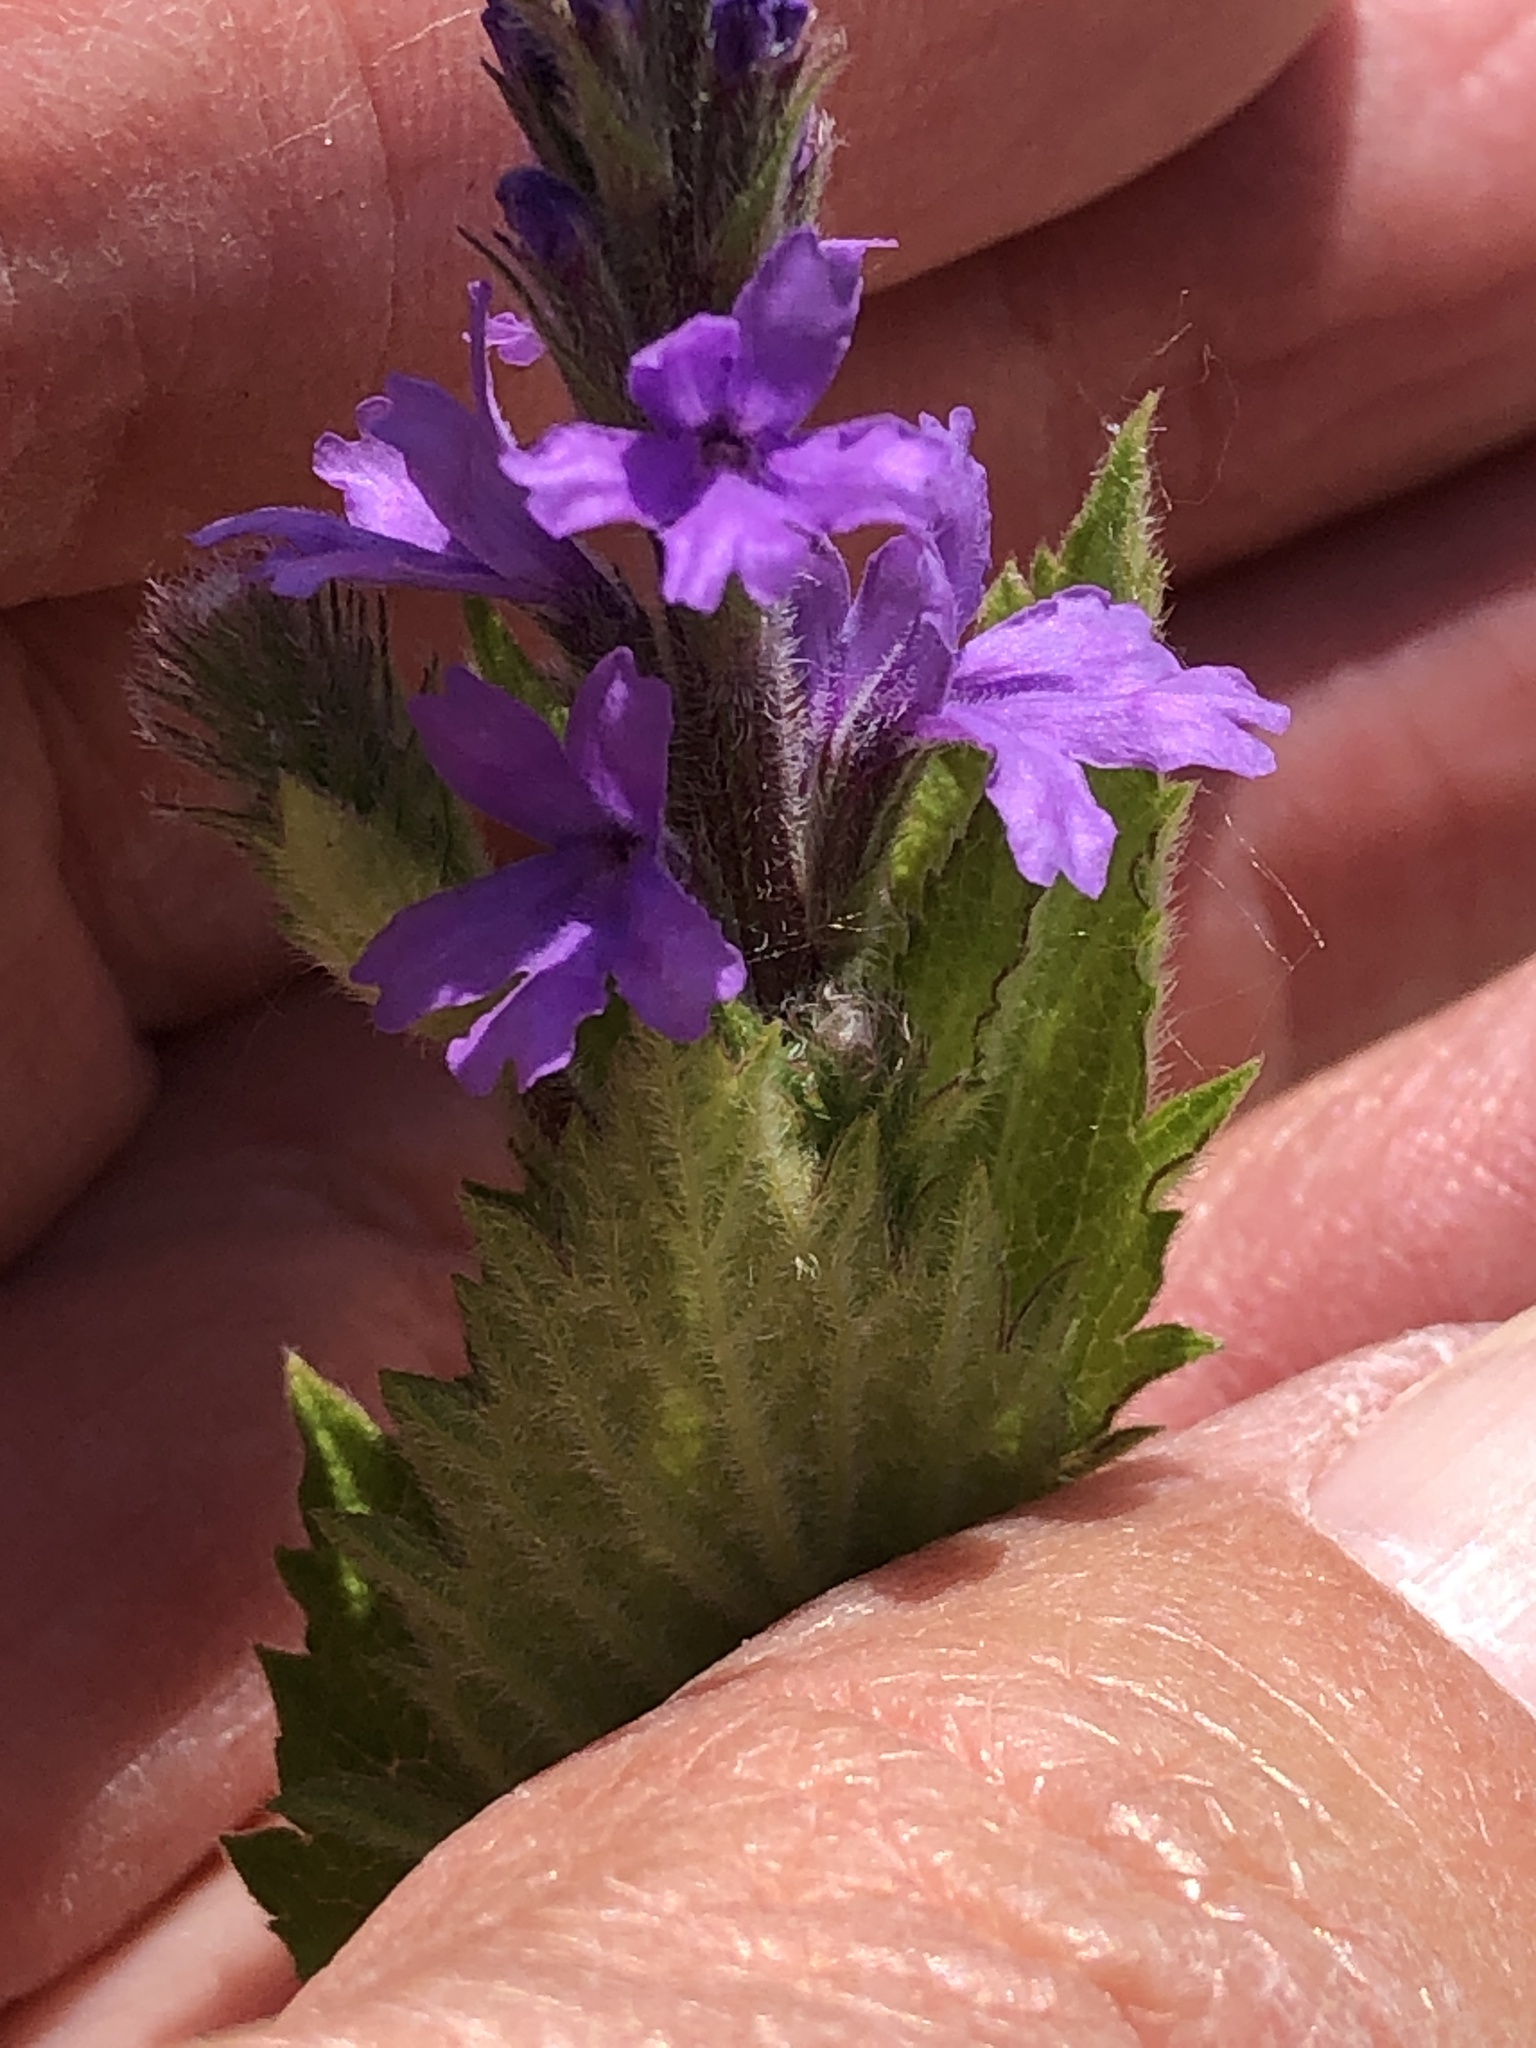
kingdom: Plantae
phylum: Tracheophyta
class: Magnoliopsida
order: Lamiales
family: Verbenaceae
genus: Verbena
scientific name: Verbena stricta
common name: Hoary vervain
